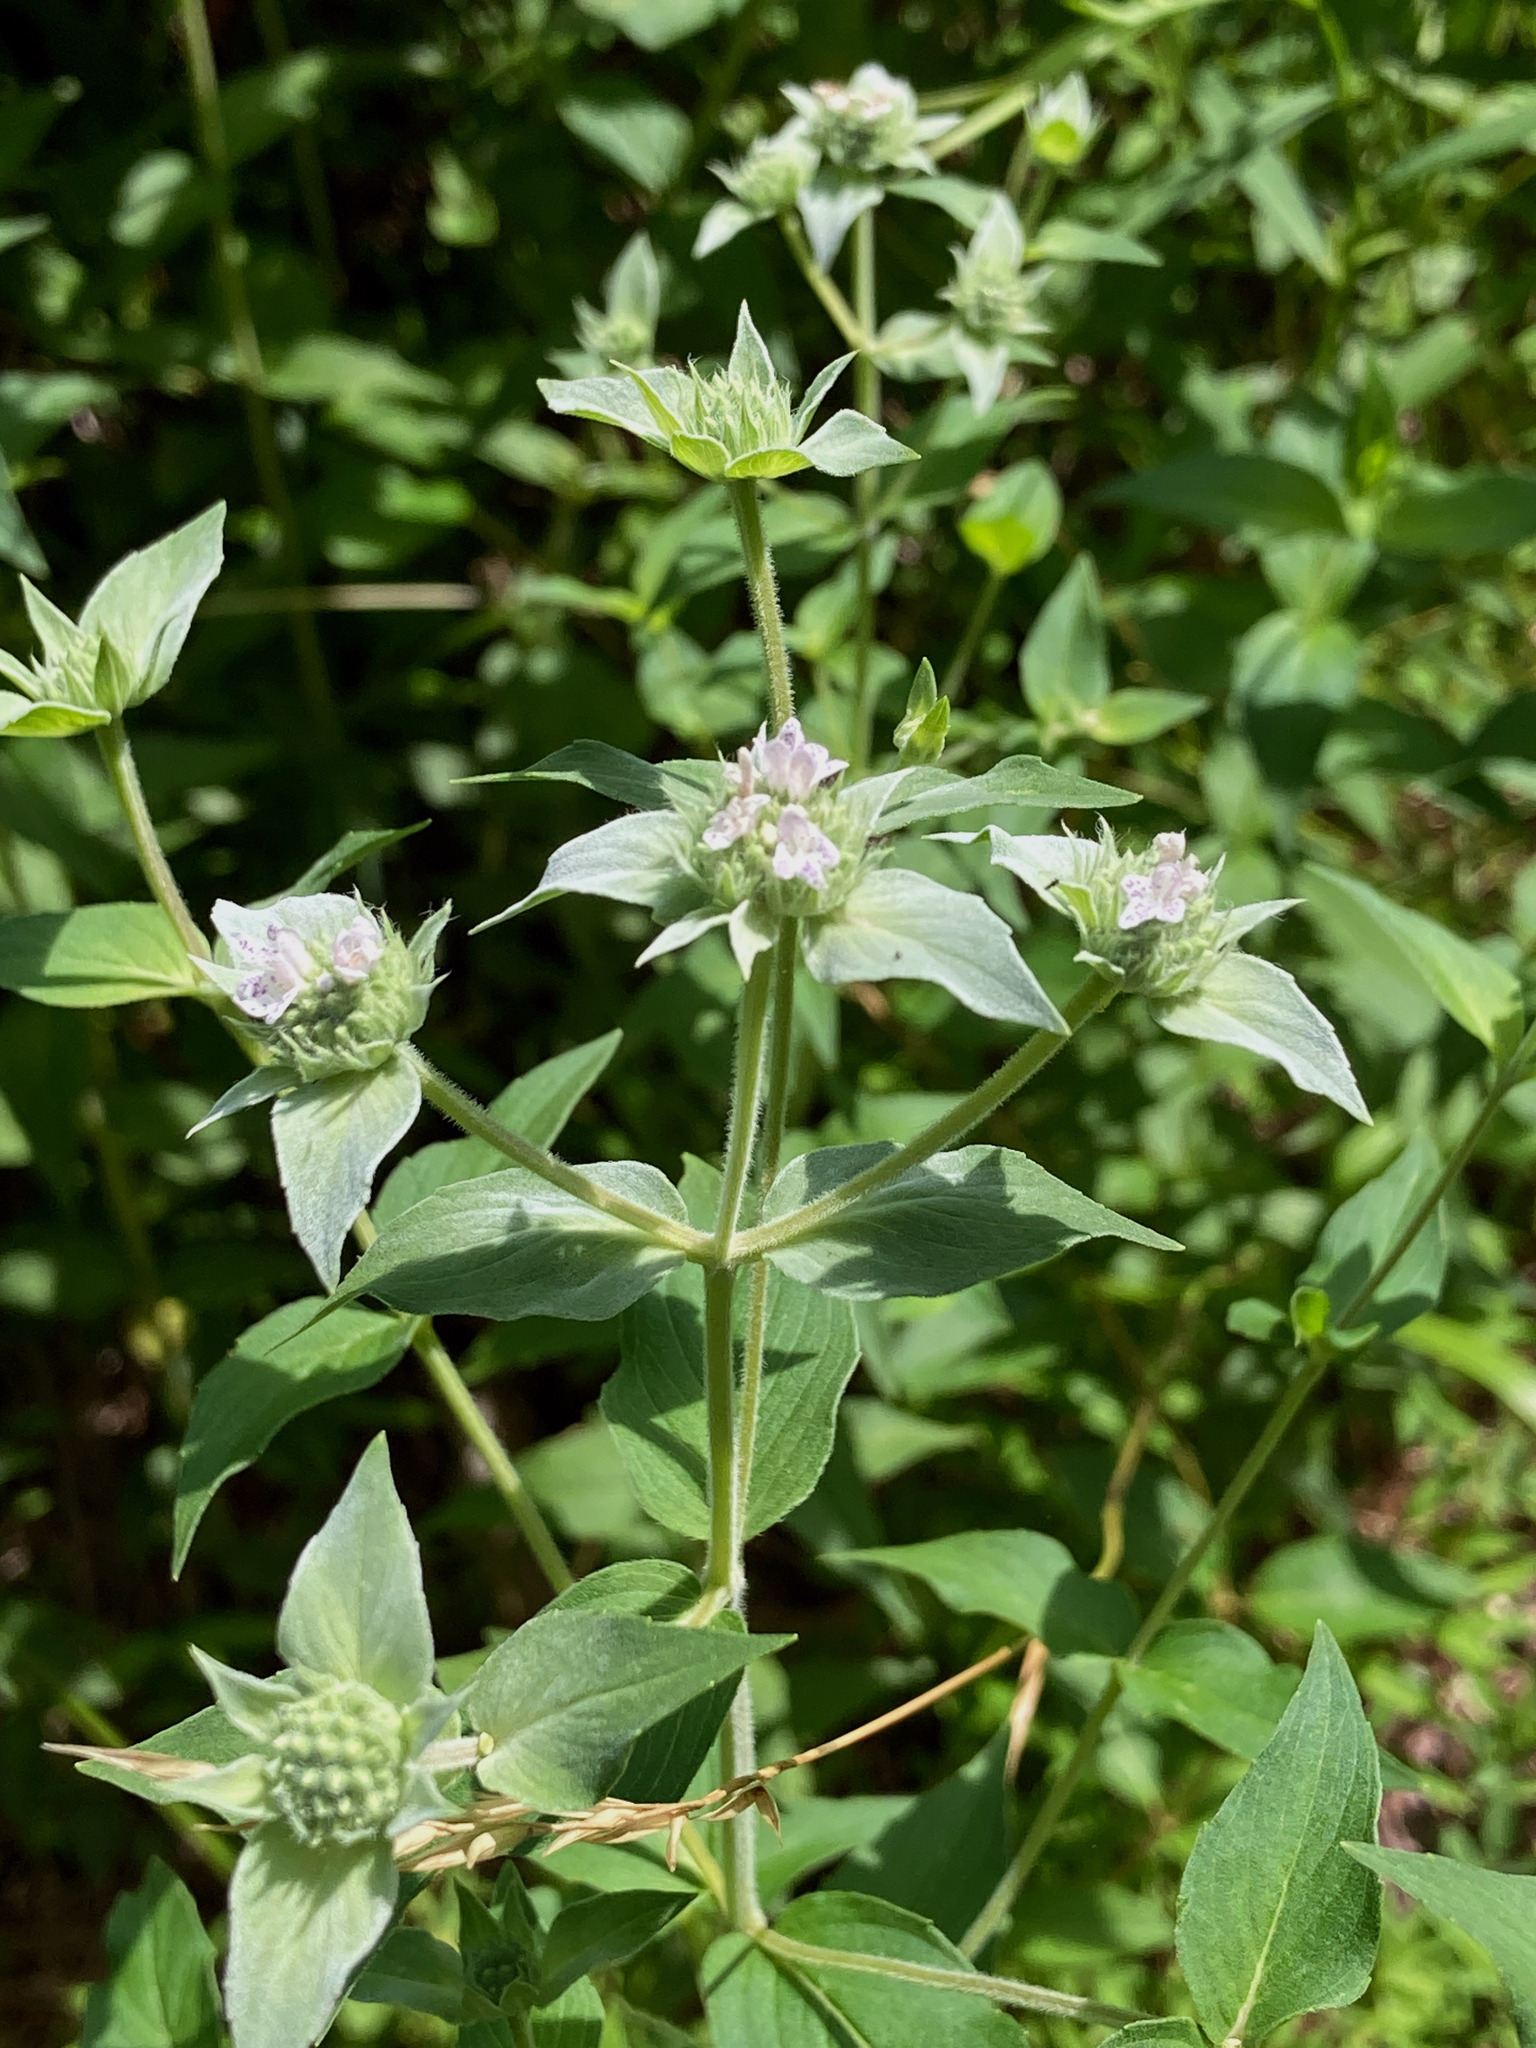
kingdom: Plantae
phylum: Tracheophyta
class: Magnoliopsida
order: Lamiales
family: Lamiaceae
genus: Pycnanthemum
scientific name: Pycnanthemum muticum
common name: Blunt mountain-mint
